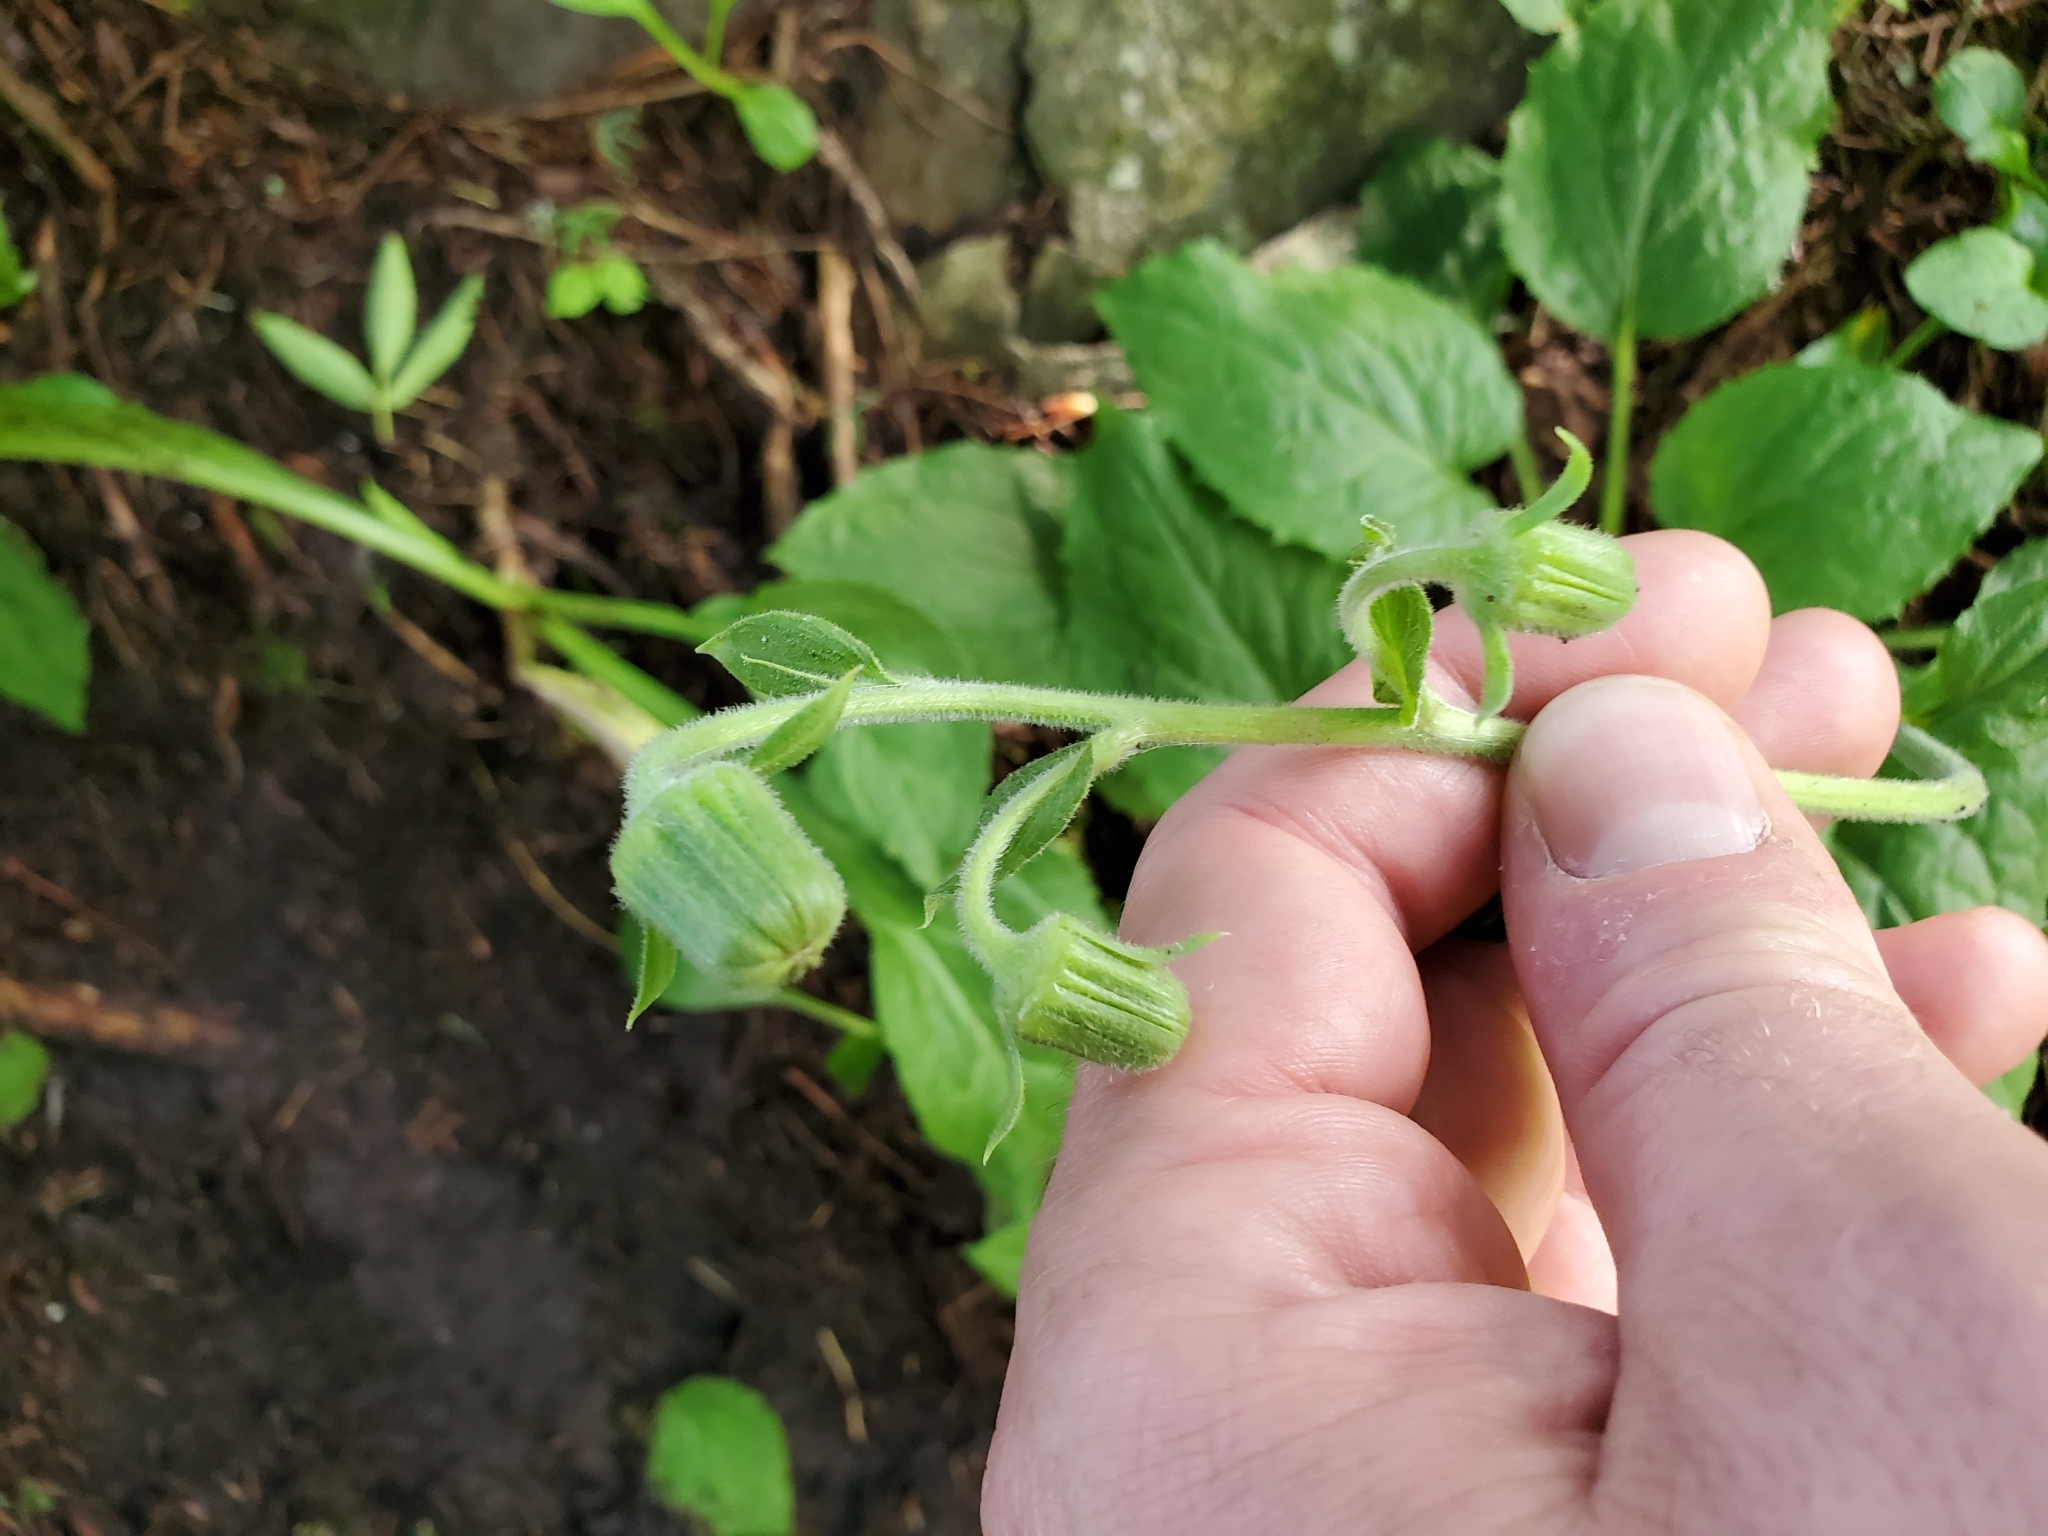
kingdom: Plantae
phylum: Tracheophyta
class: Magnoliopsida
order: Asterales
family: Asteraceae
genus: Rugelia
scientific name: Rugelia nudicaulis
